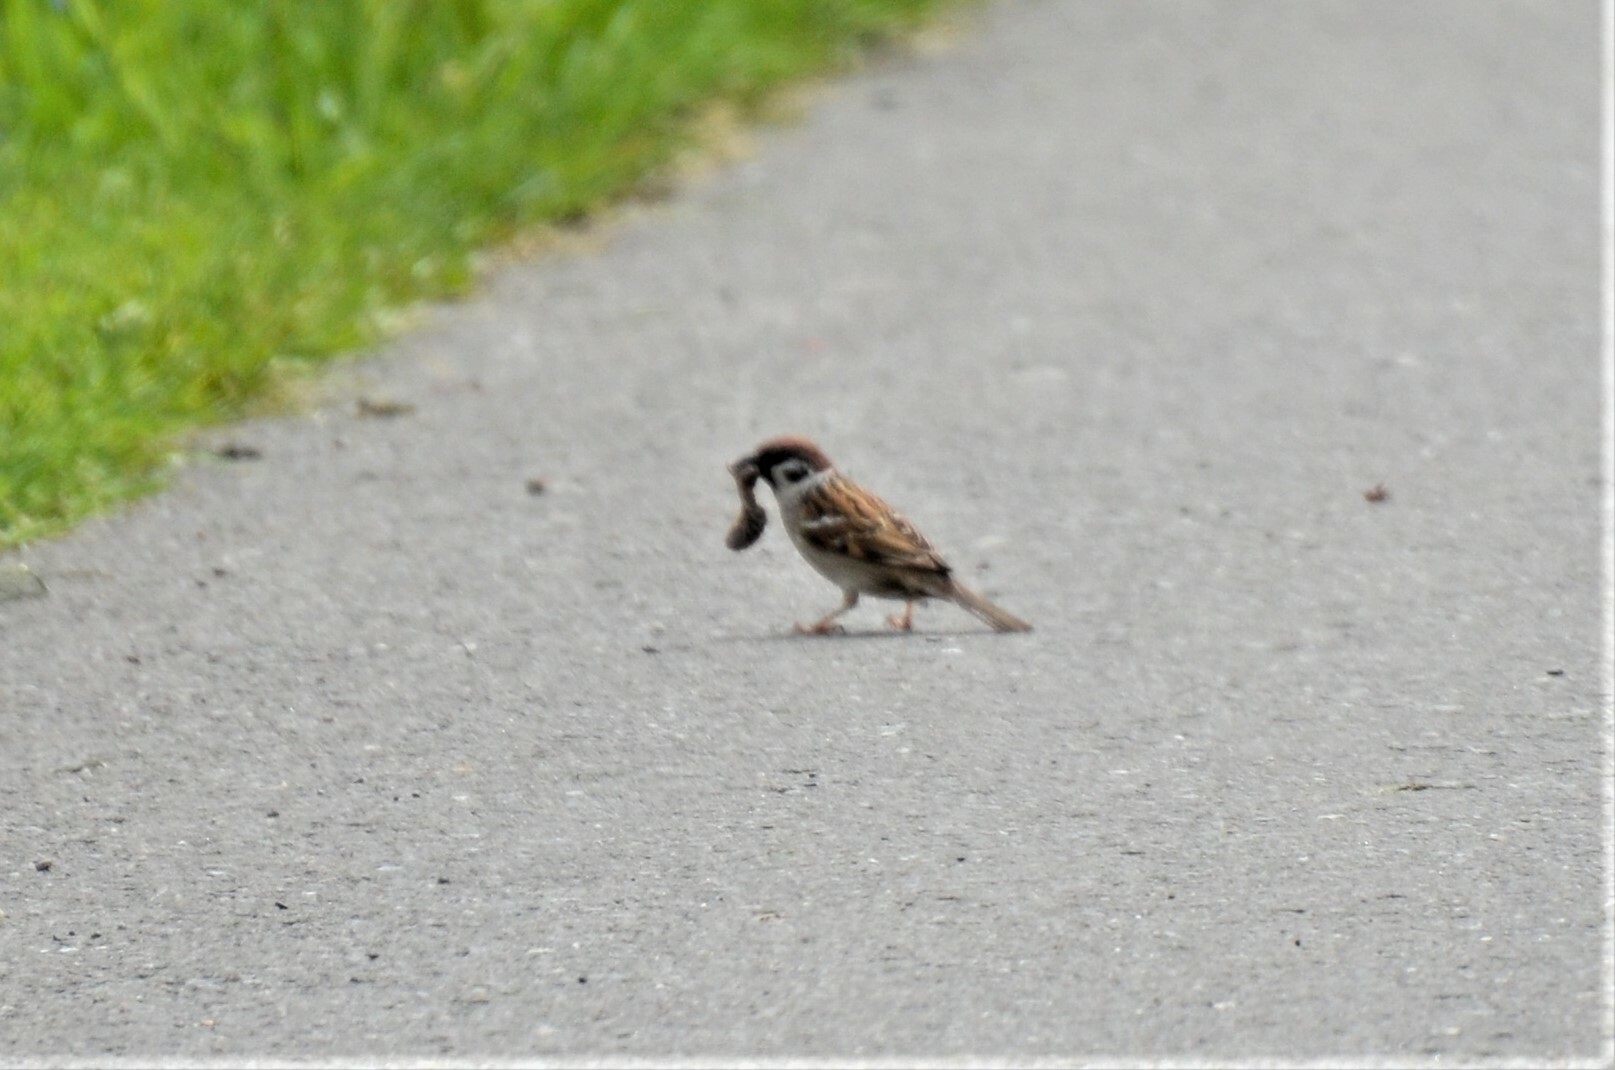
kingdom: Animalia
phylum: Chordata
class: Aves
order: Passeriformes
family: Passeridae
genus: Passer
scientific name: Passer montanus
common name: Eurasian tree sparrow
